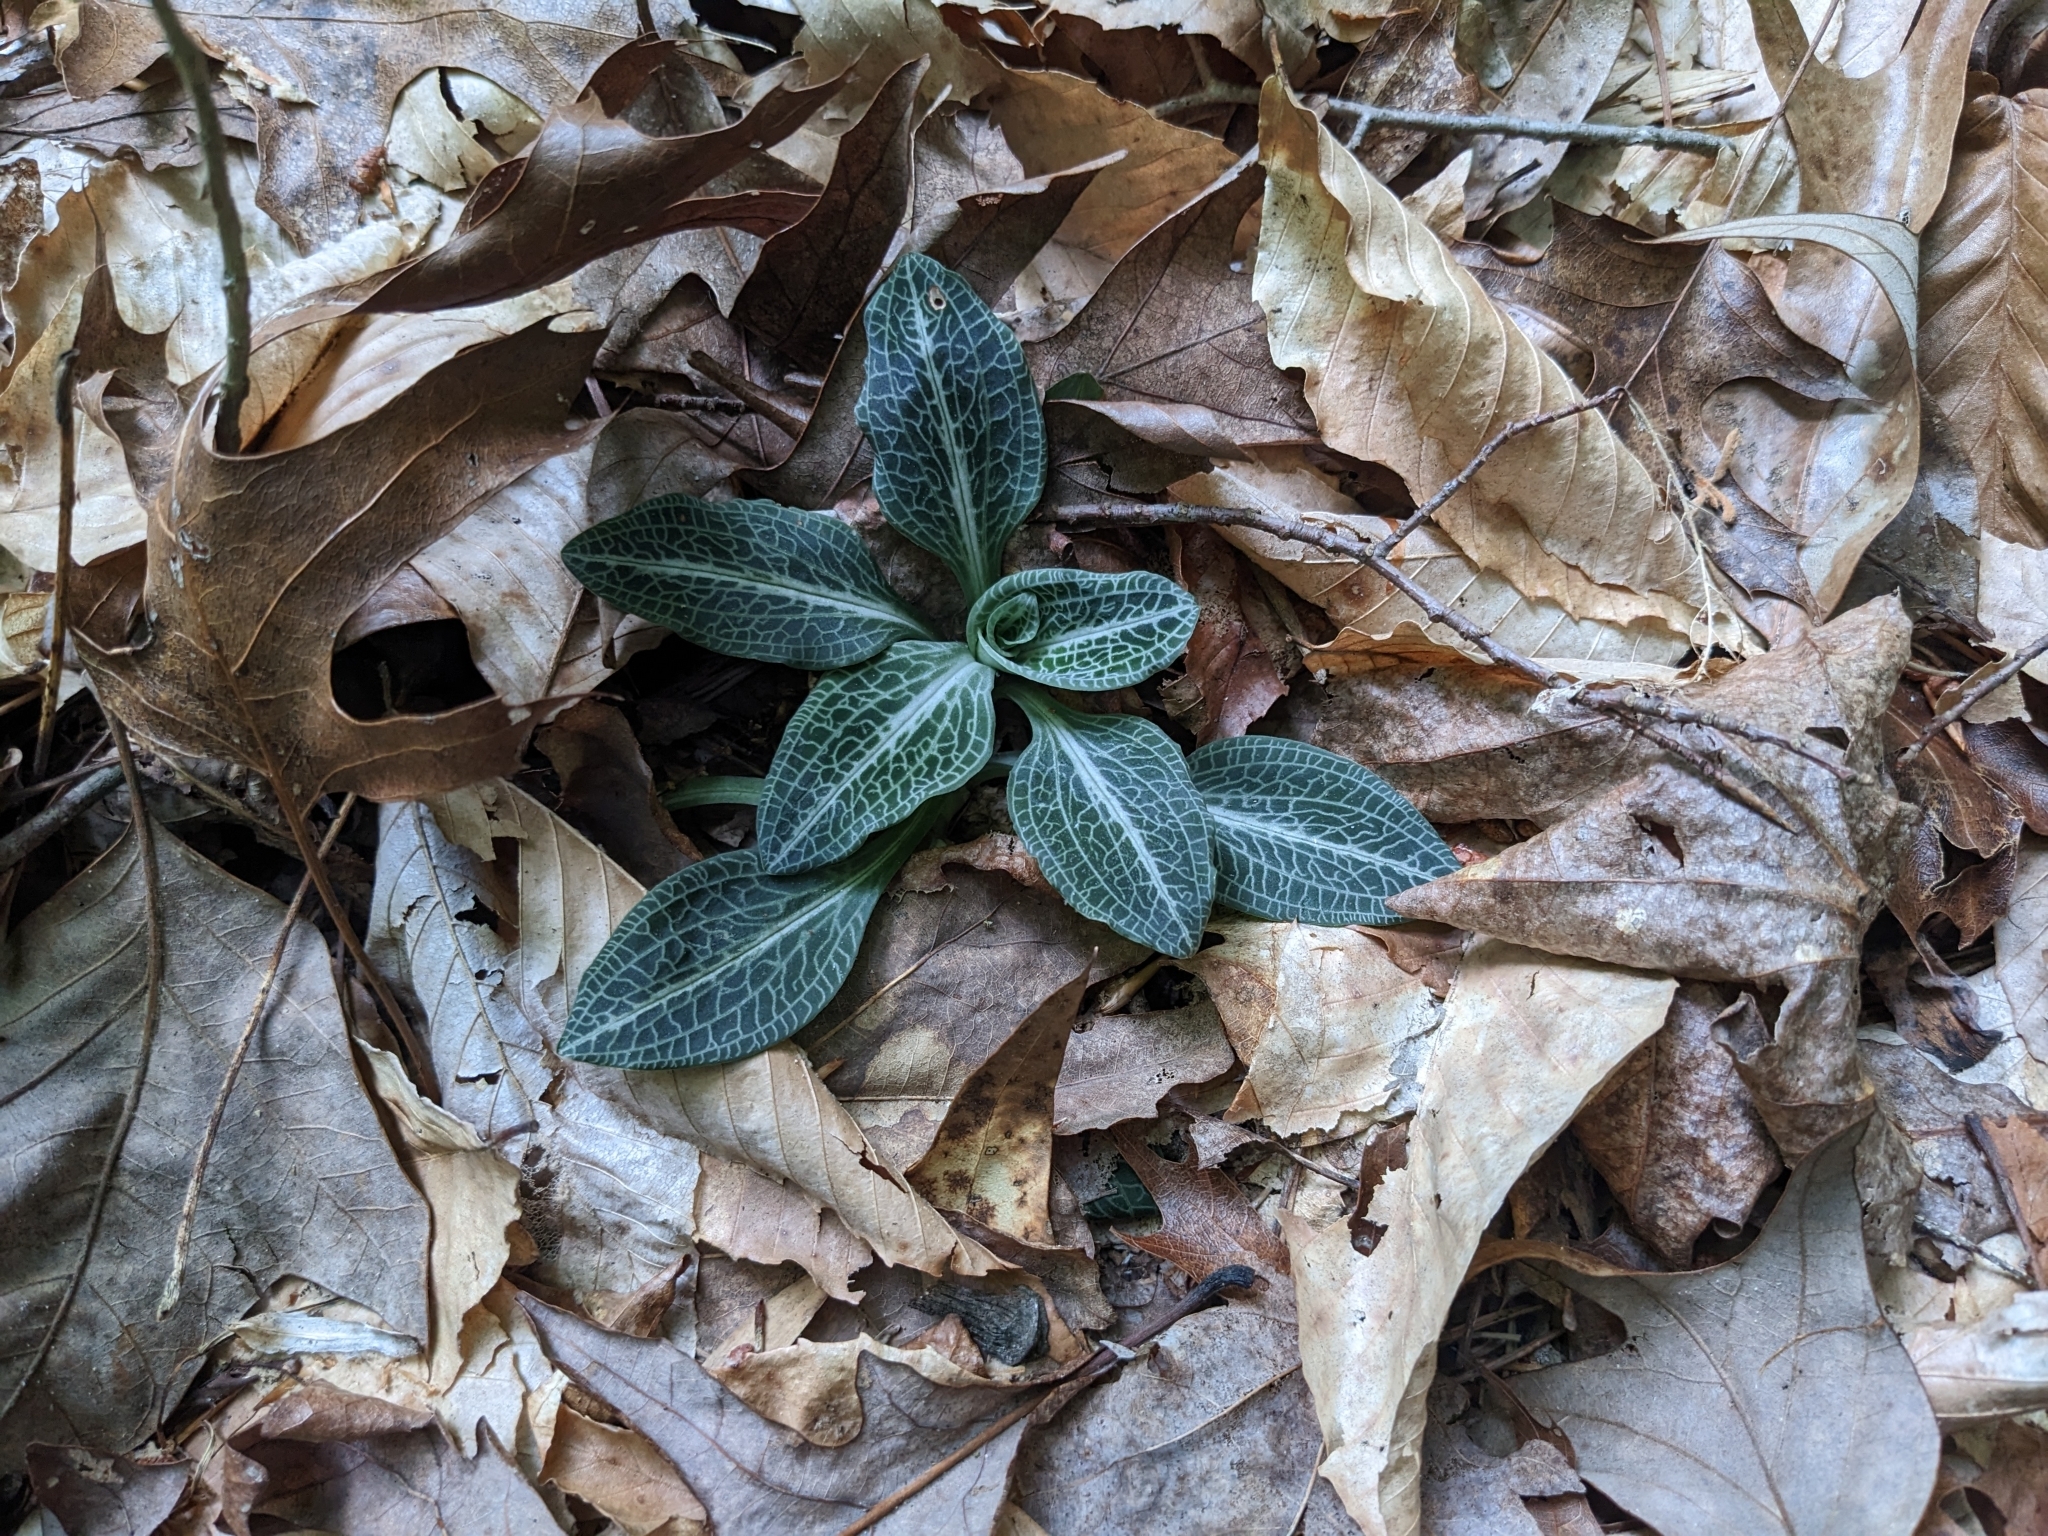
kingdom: Plantae
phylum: Tracheophyta
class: Liliopsida
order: Asparagales
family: Orchidaceae
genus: Goodyera
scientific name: Goodyera pubescens
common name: Downy rattlesnake-plantain
